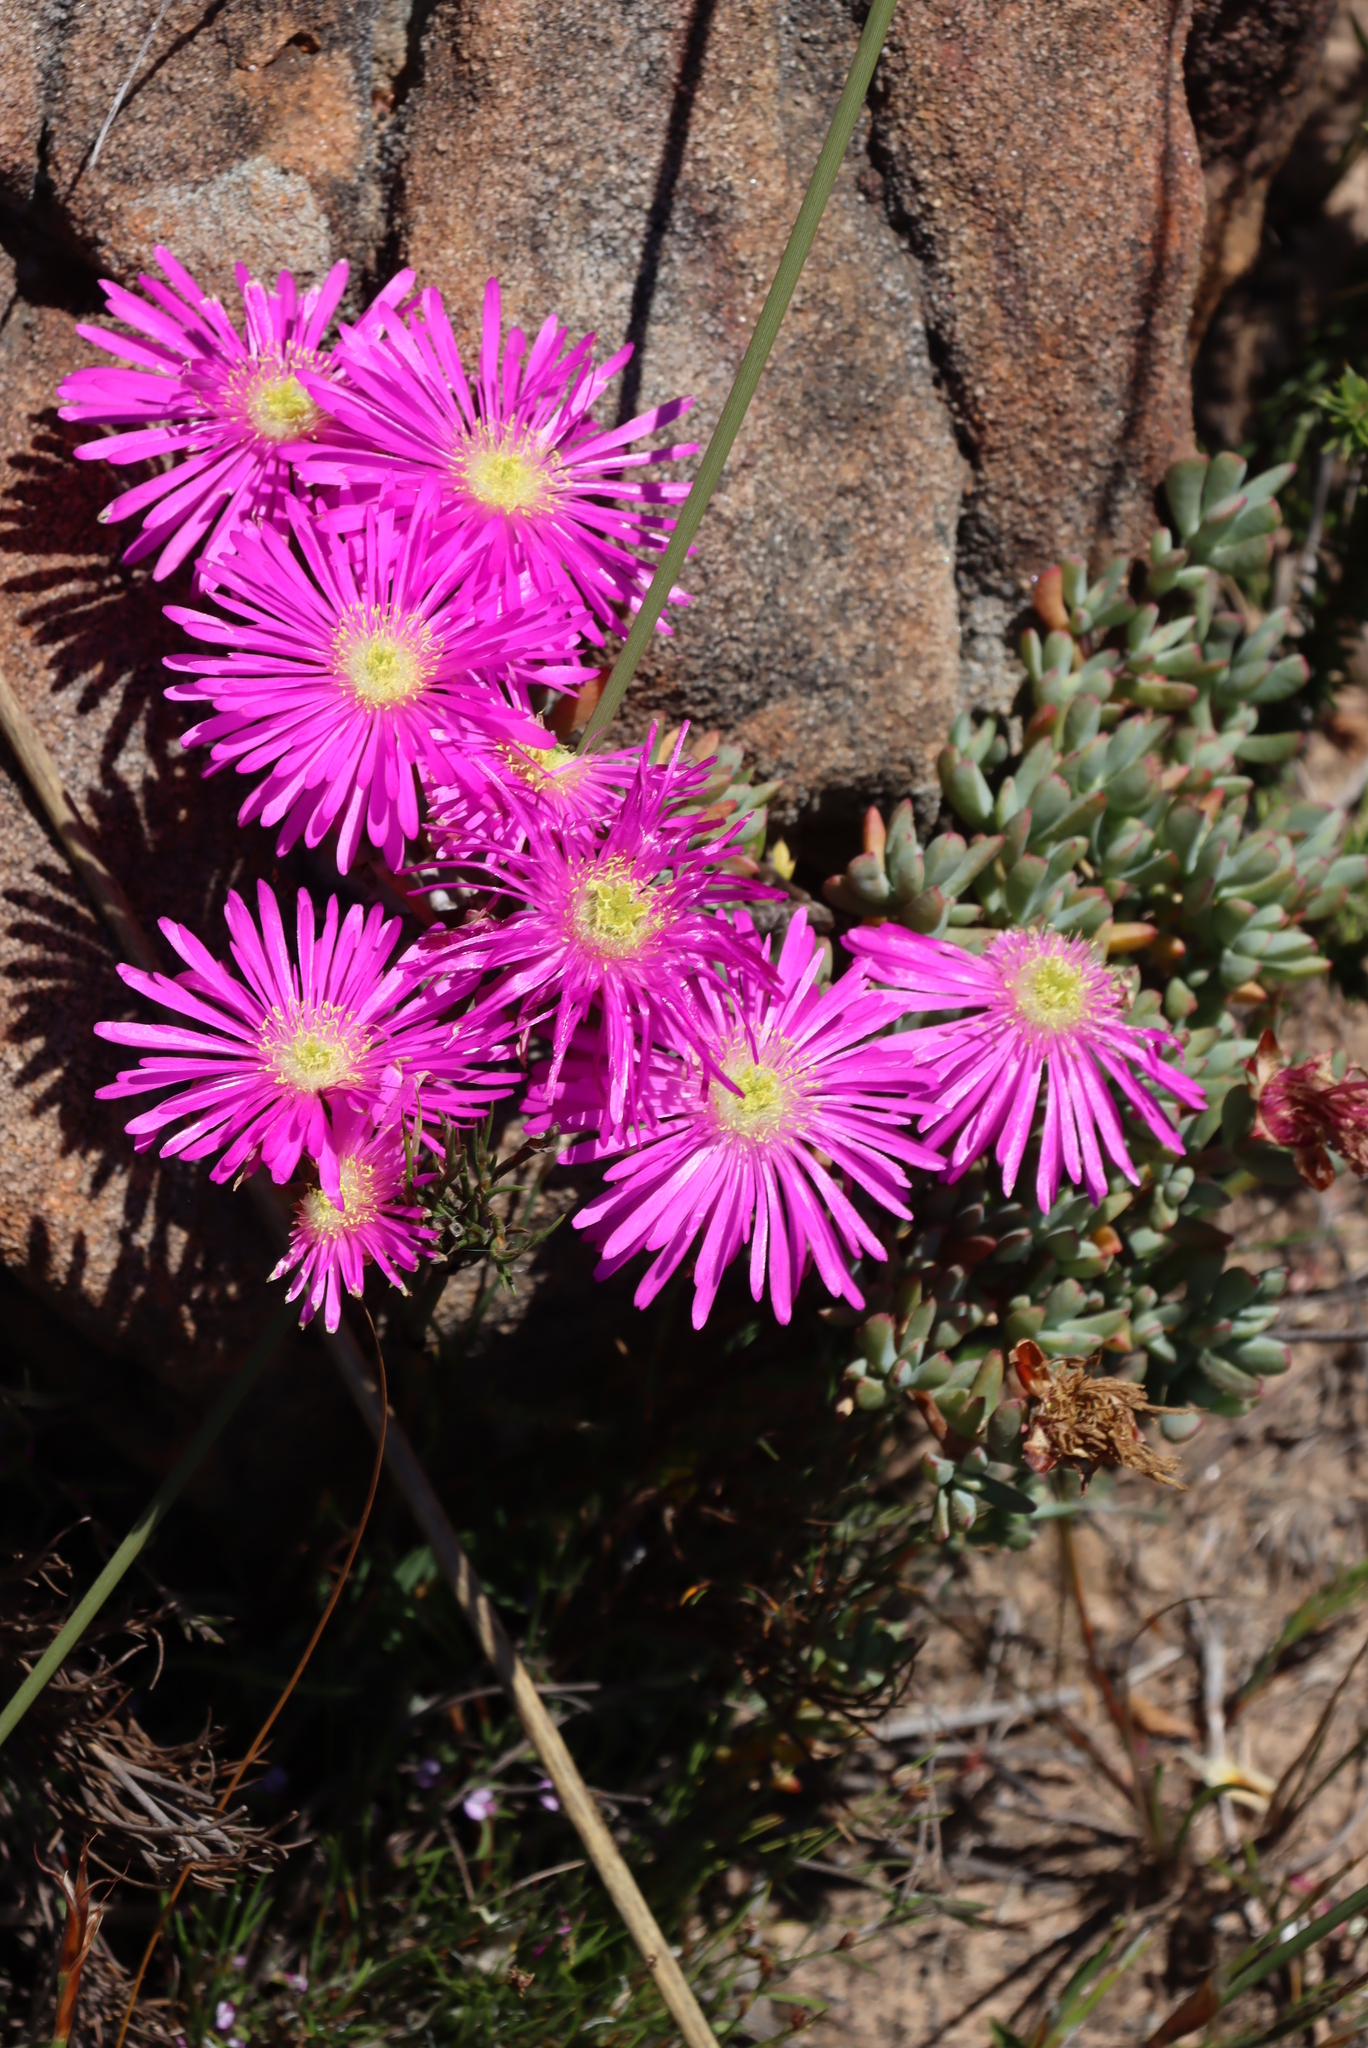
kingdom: Plantae
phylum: Tracheophyta
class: Magnoliopsida
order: Caryophyllales
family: Aizoaceae
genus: Oscularia
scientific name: Oscularia falciformis
